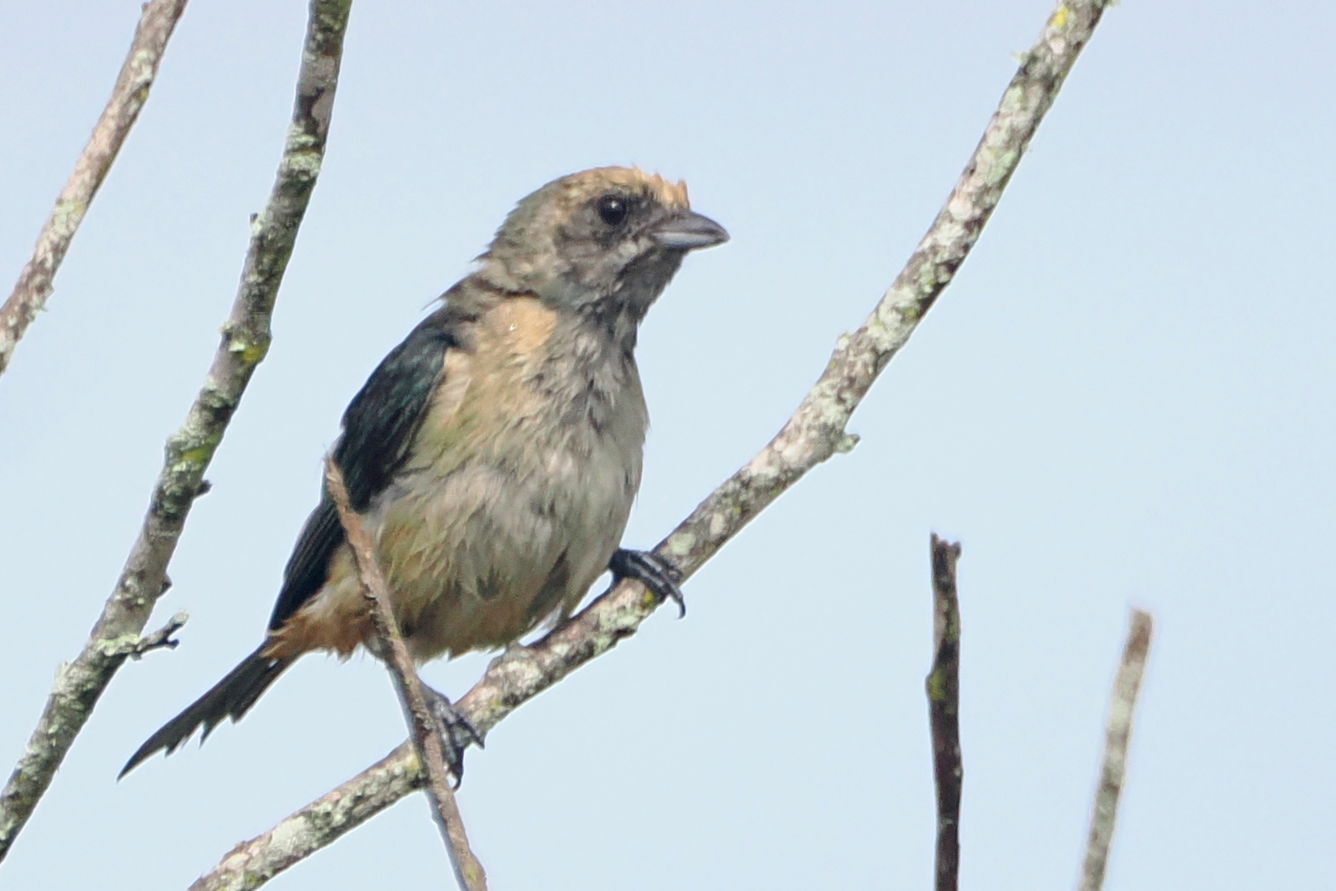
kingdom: Animalia
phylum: Chordata
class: Aves
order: Passeriformes
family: Thraupidae
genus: Stilpnia
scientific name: Stilpnia cayana
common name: Burnished-buff tanager
